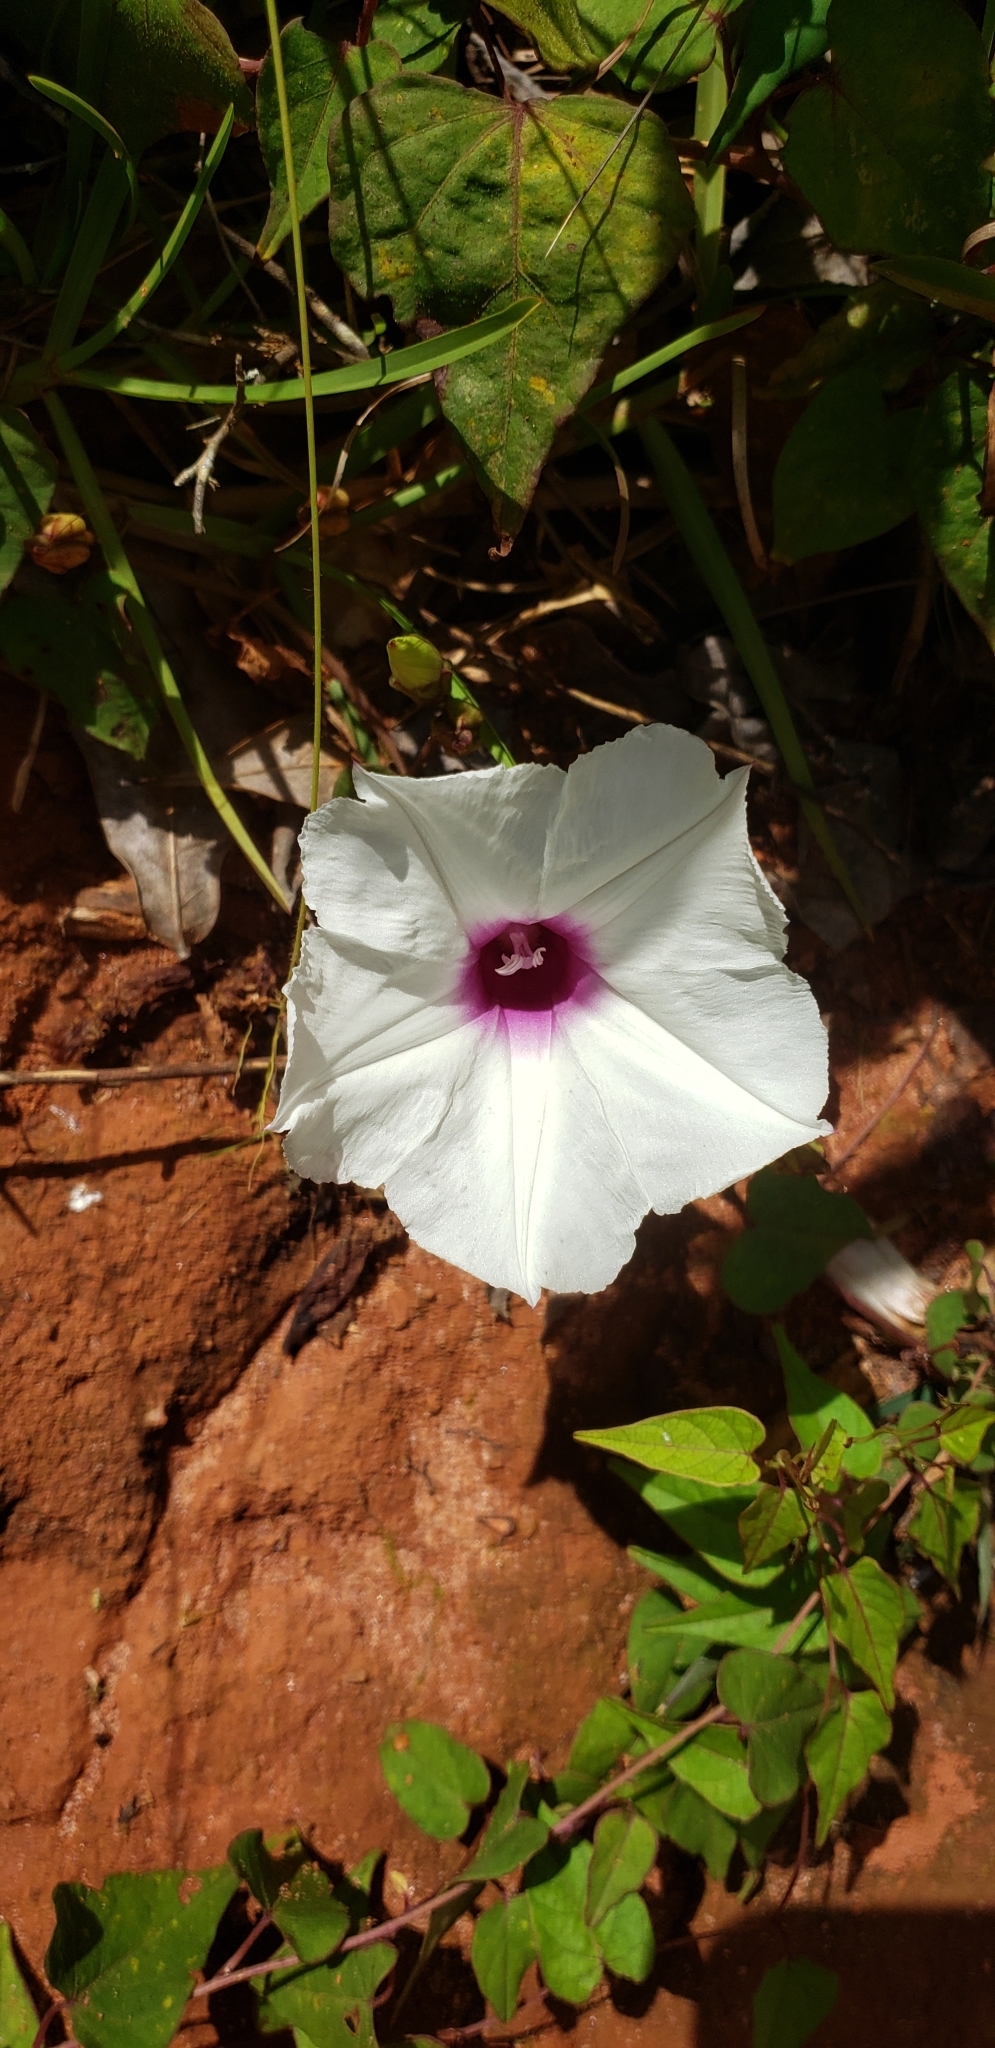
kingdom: Plantae
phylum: Tracheophyta
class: Magnoliopsida
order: Solanales
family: Convolvulaceae
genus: Ipomoea
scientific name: Ipomoea pandurata
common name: Man-of-the-earth
